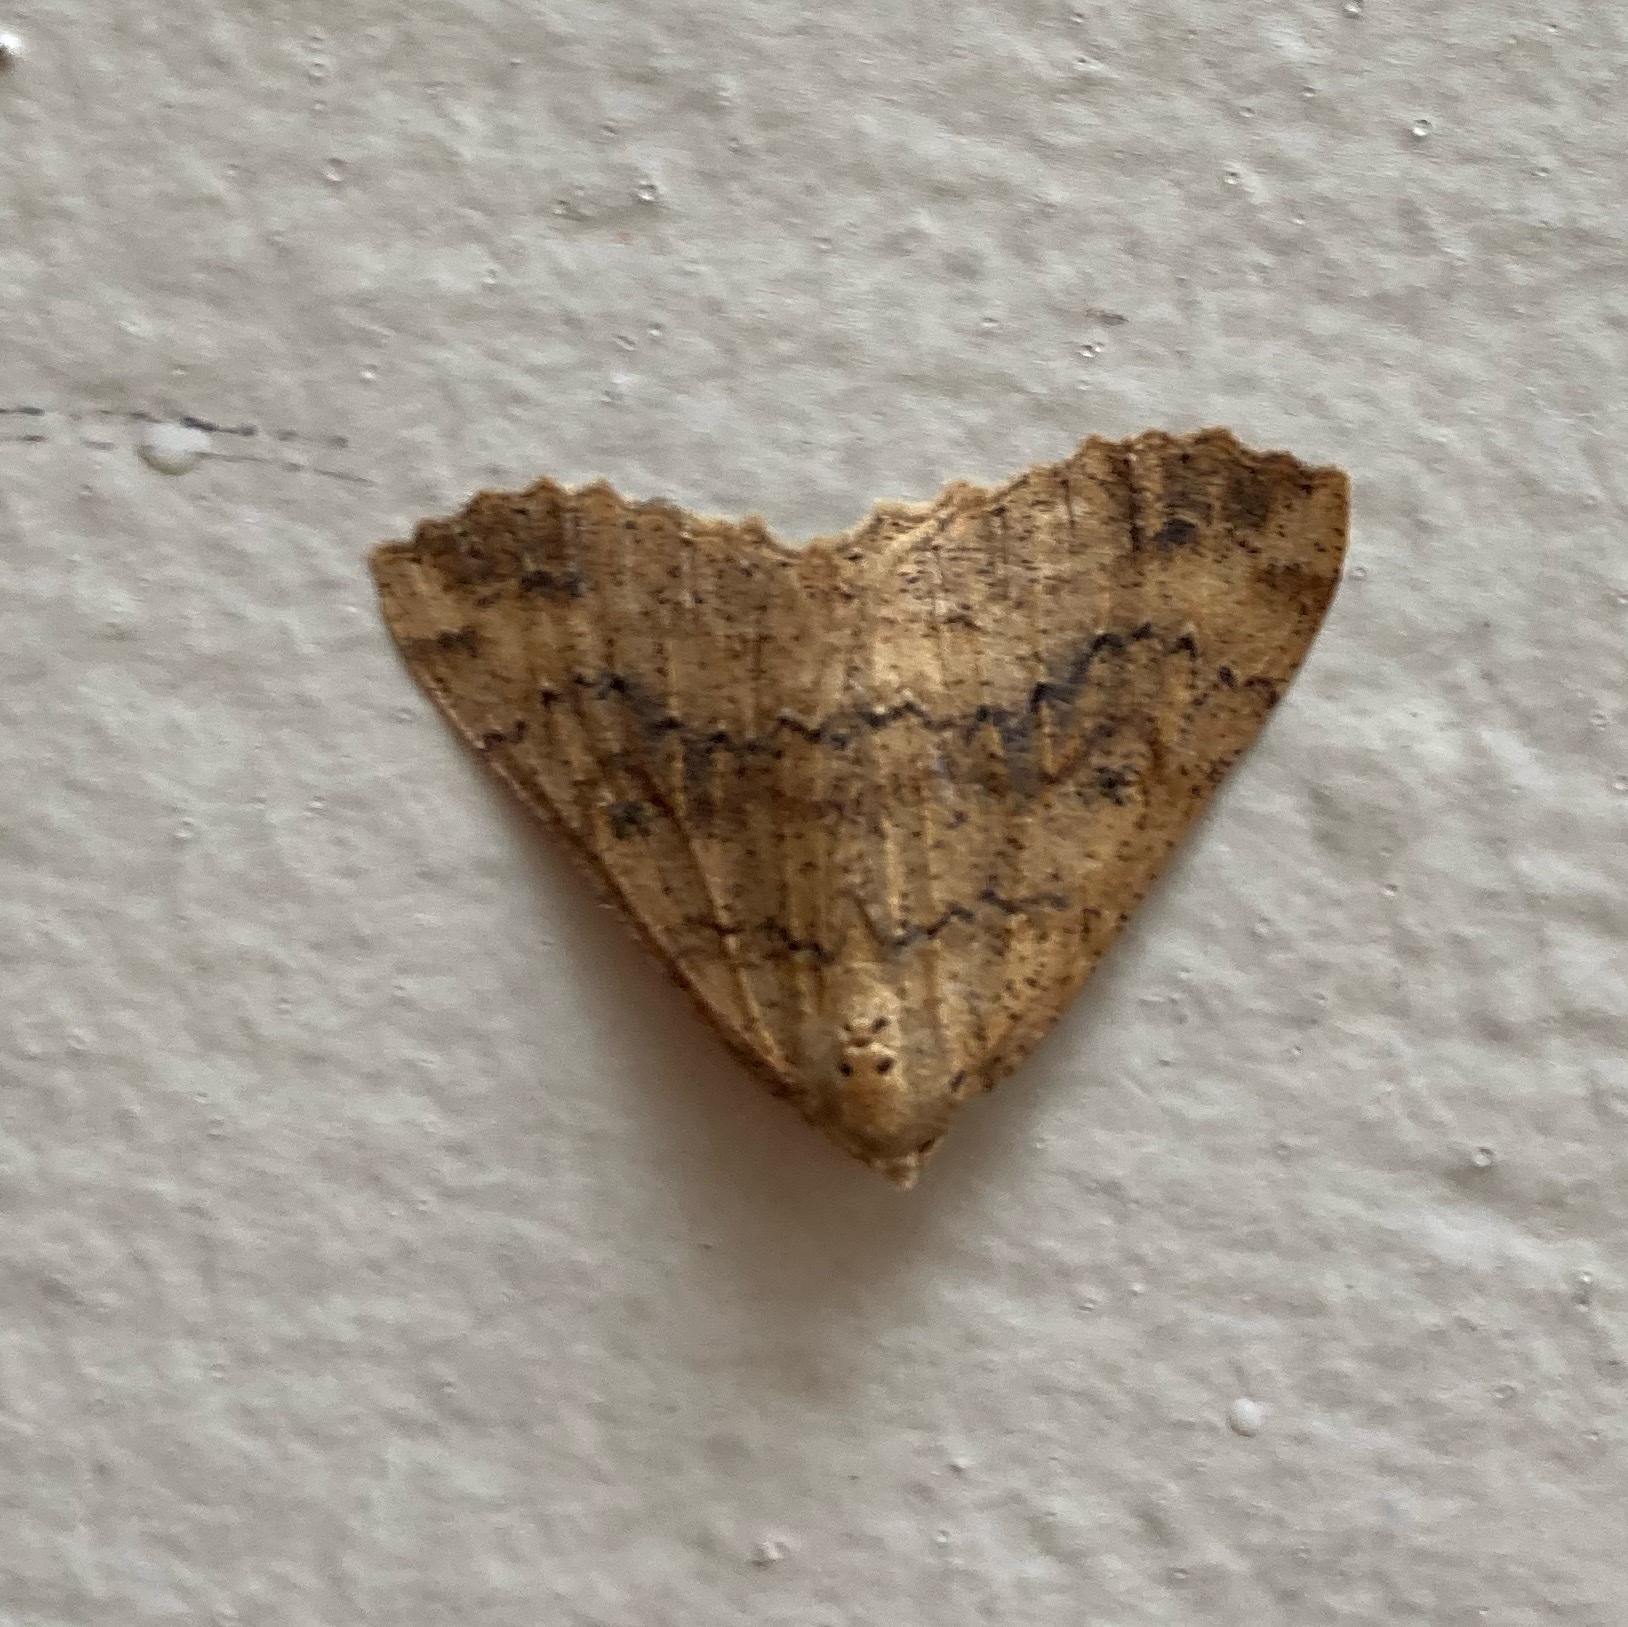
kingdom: Animalia
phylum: Arthropoda
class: Insecta
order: Lepidoptera
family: Geometridae
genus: Cleora
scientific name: Cleora scriptaria
